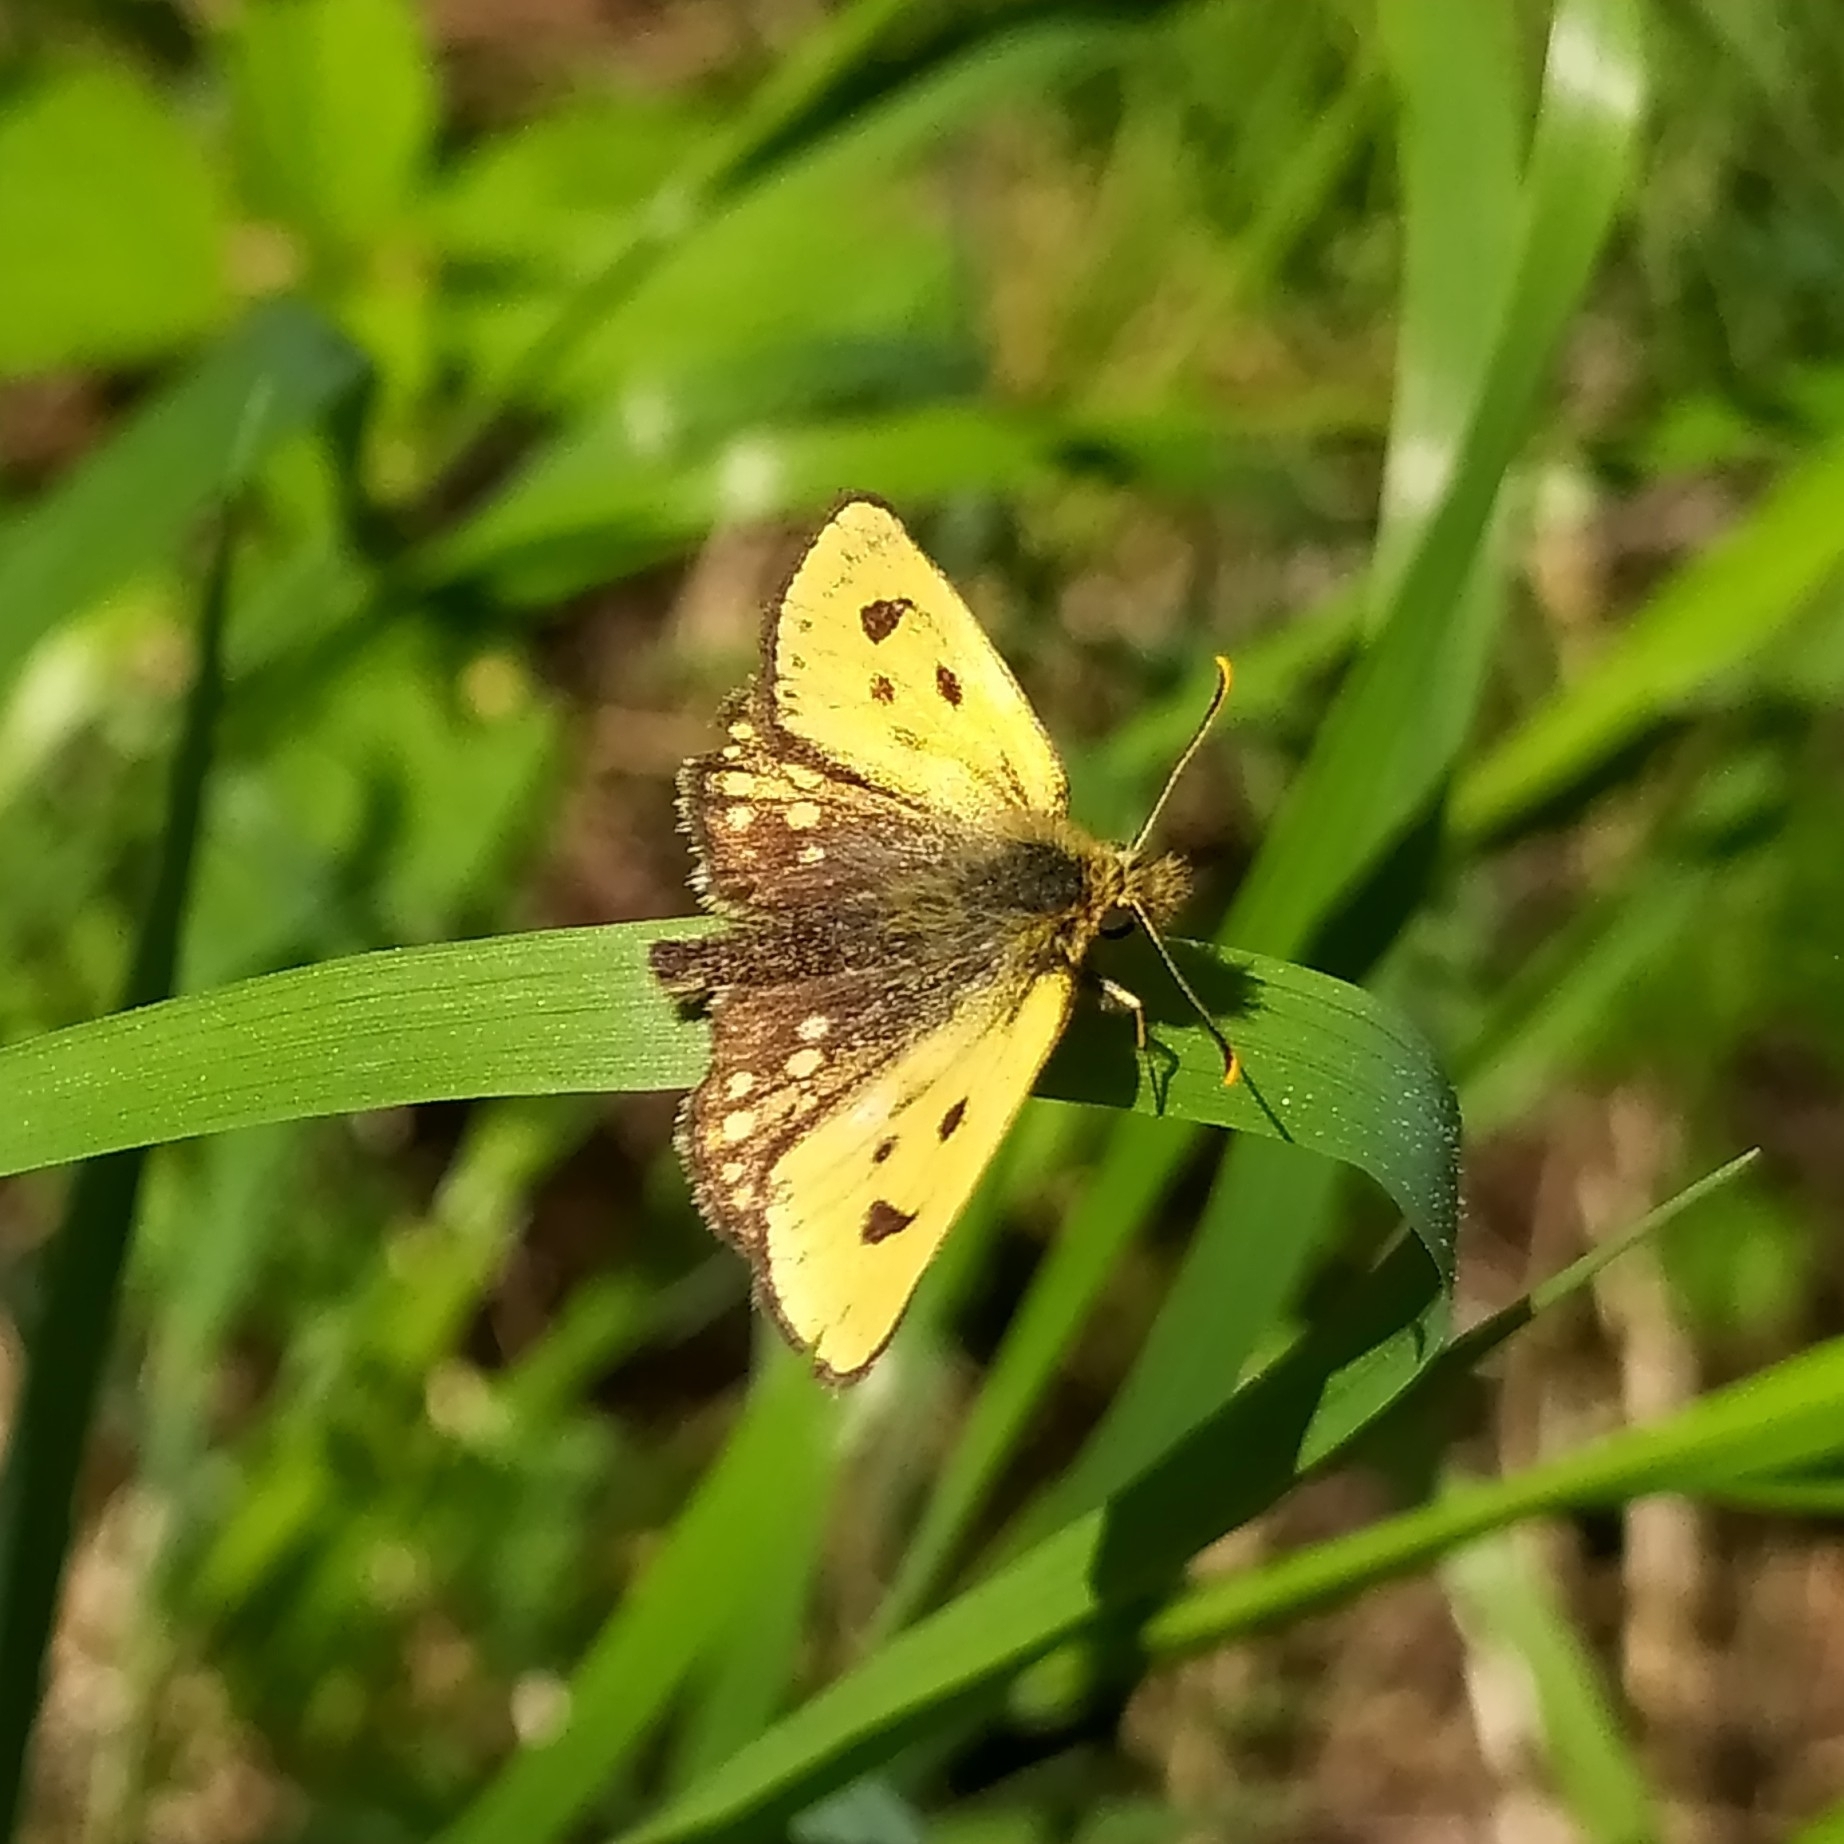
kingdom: Animalia
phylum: Arthropoda
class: Insecta
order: Lepidoptera
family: Hesperiidae
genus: Carterocephalus
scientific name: Carterocephalus silvicola
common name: Northern chequered skipper
